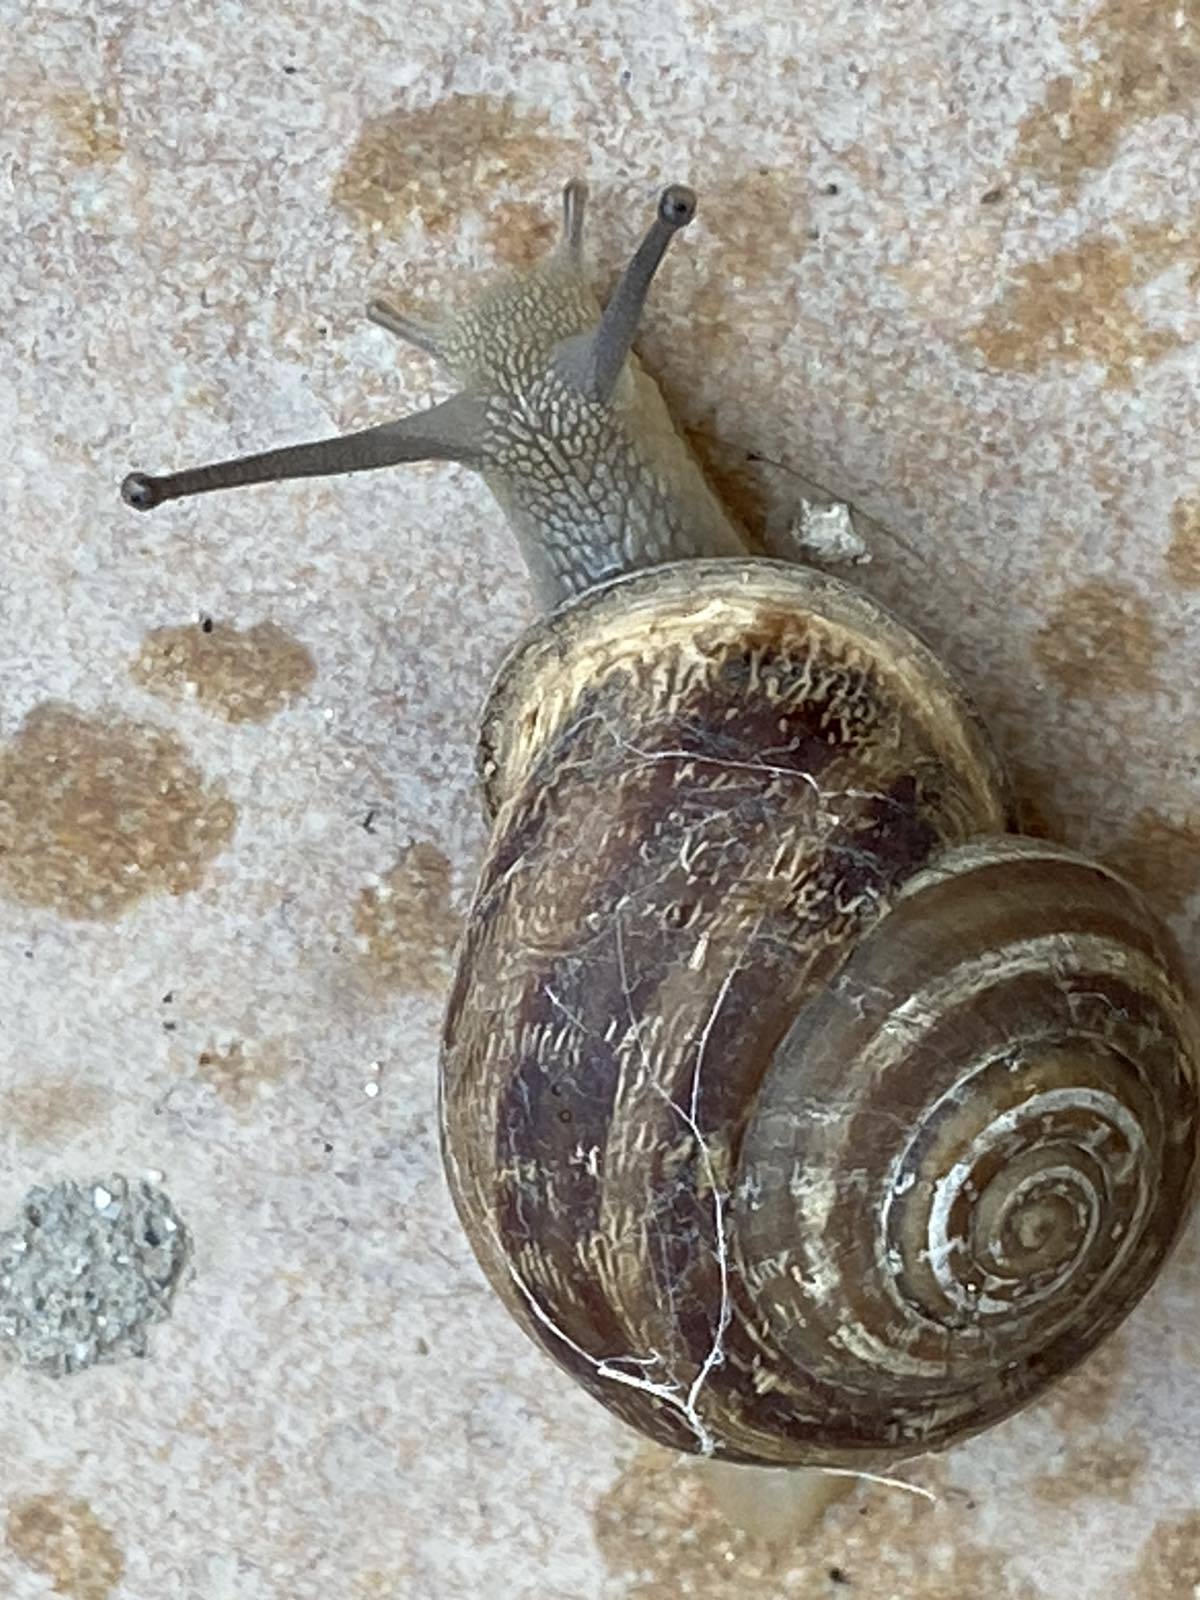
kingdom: Animalia
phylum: Mollusca
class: Gastropoda
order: Stylommatophora
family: Helicidae
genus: Eobania
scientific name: Eobania vermiculata
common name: Chocolateband snail
